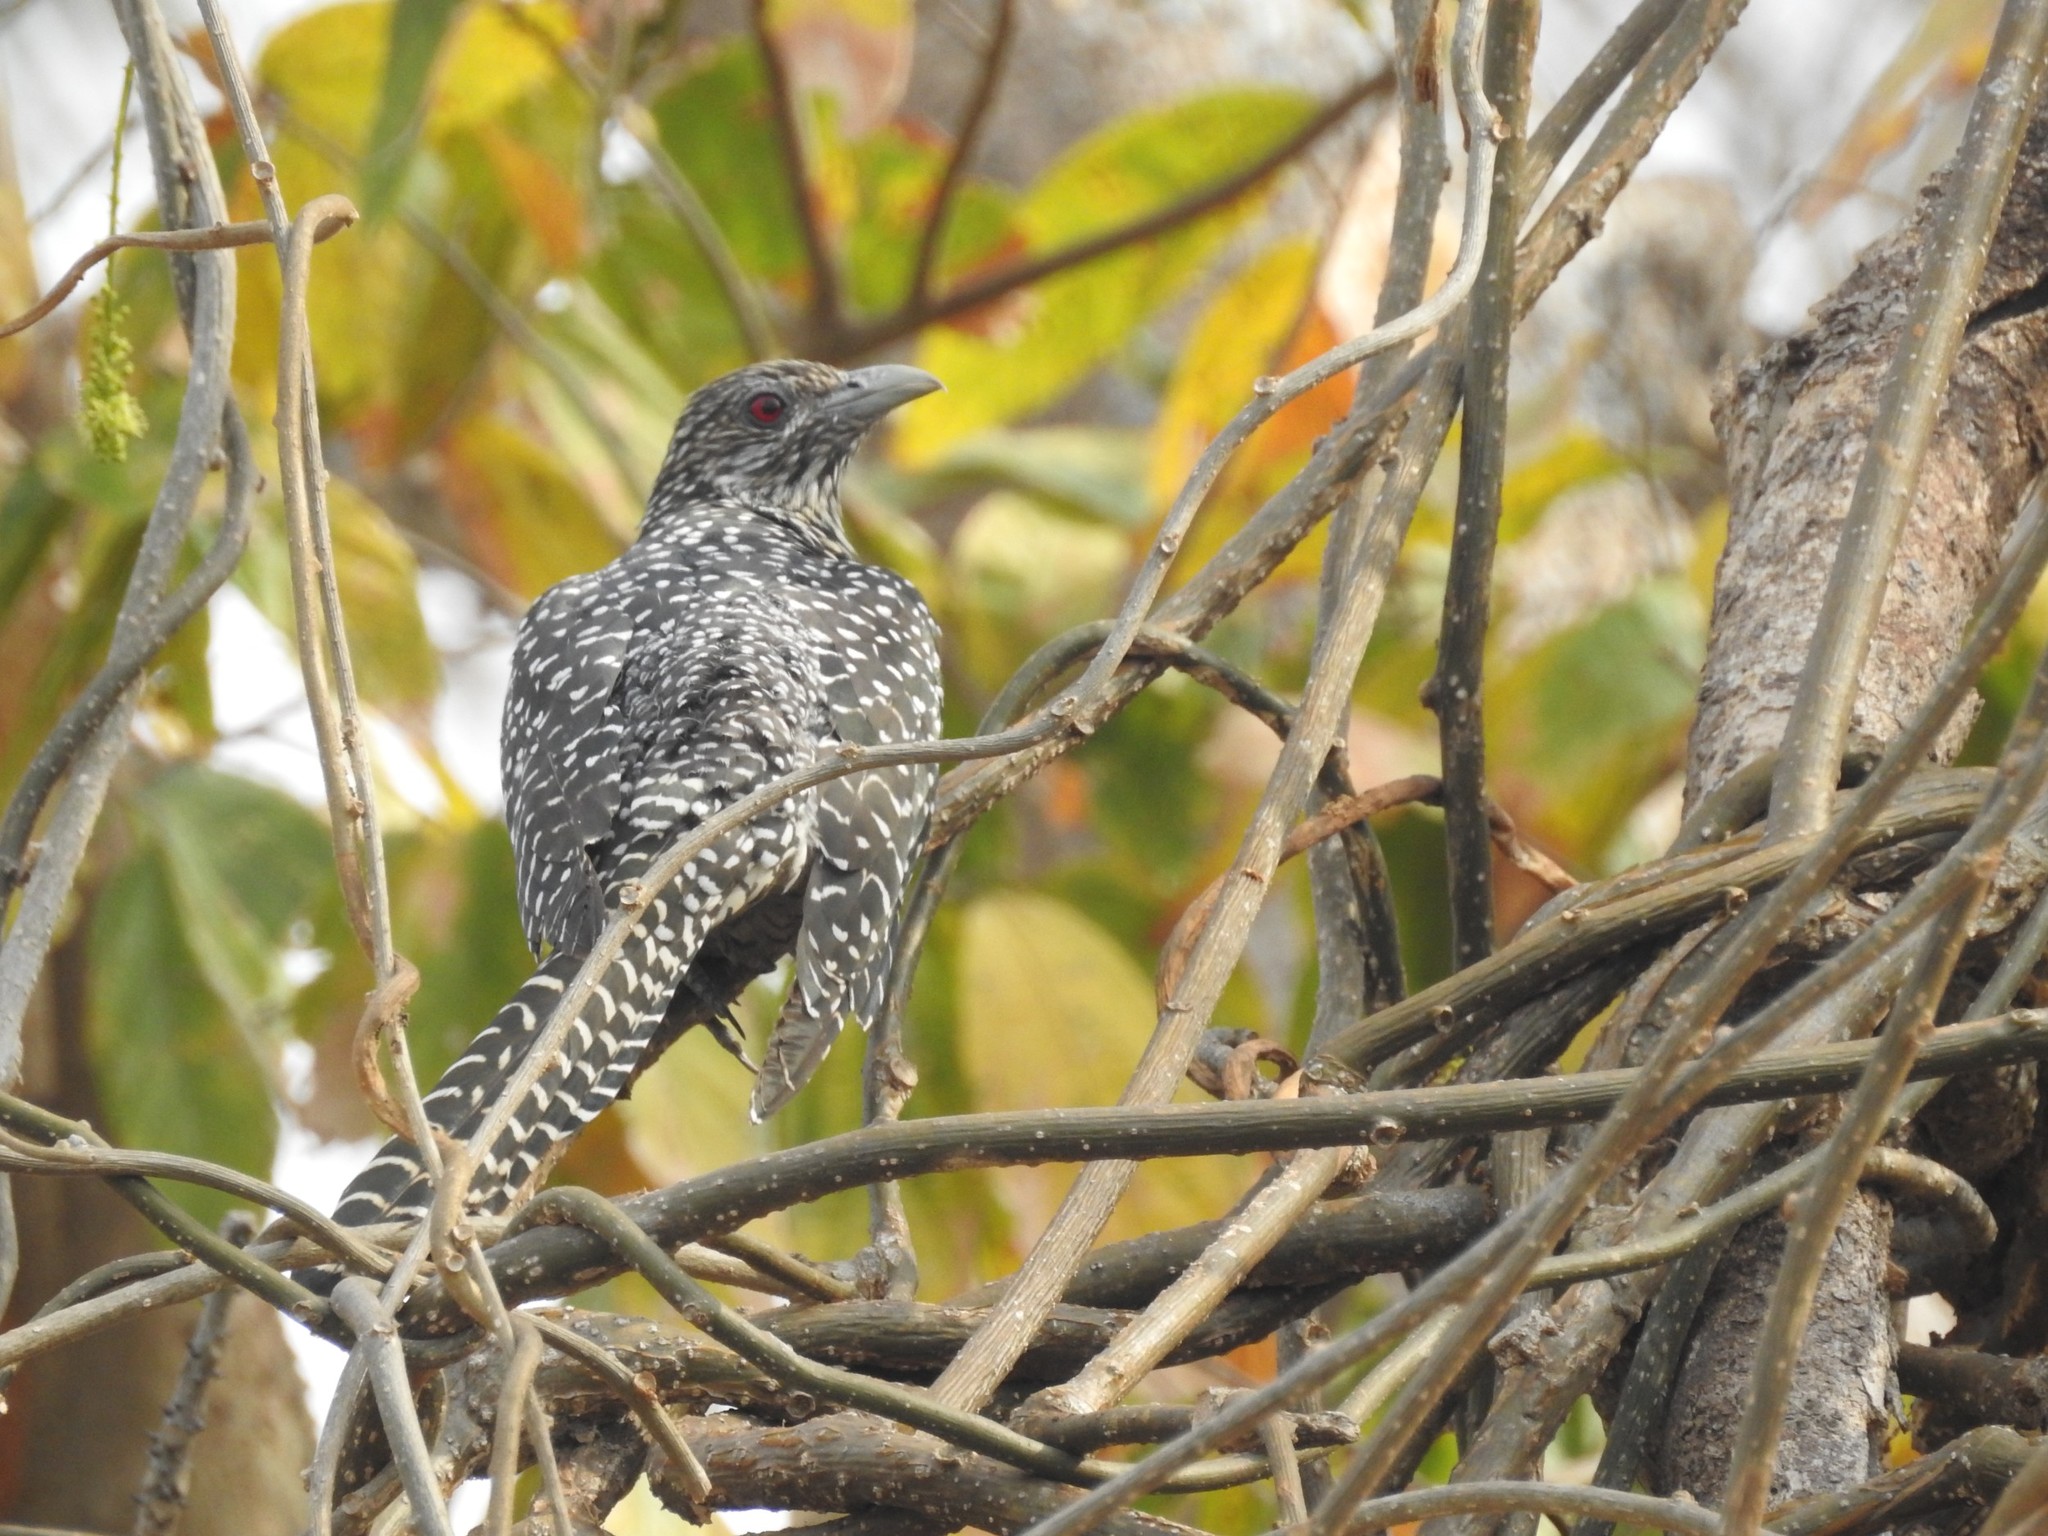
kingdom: Animalia
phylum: Chordata
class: Aves
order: Cuculiformes
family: Cuculidae
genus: Eudynamys
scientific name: Eudynamys scolopaceus
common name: Asian koel
